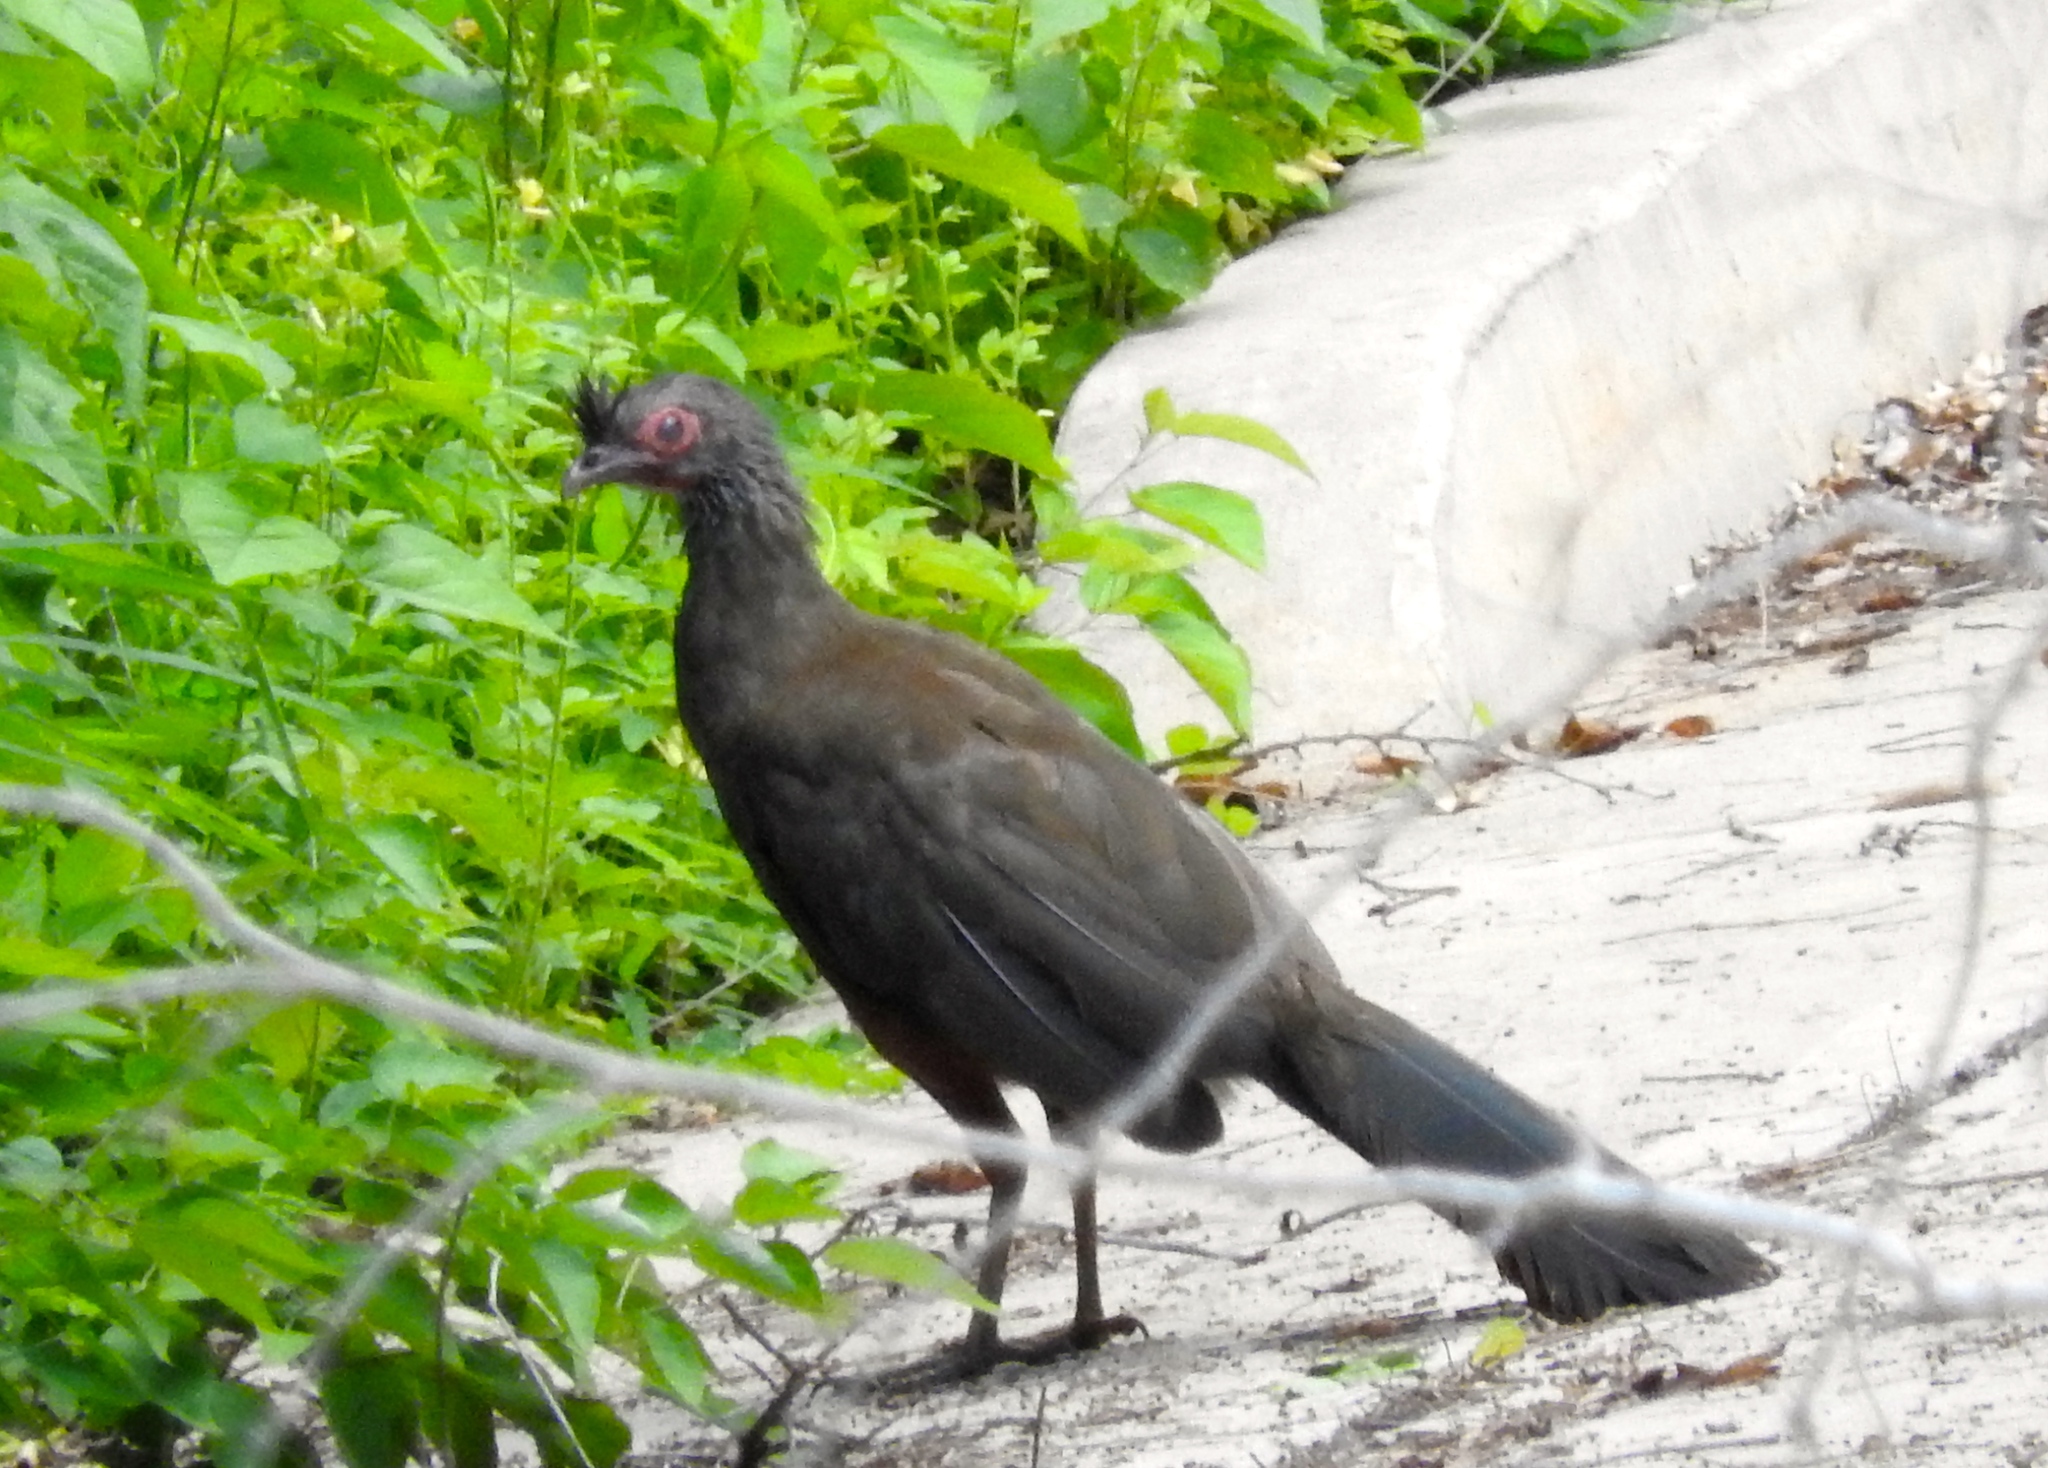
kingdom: Animalia
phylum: Chordata
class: Aves
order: Galliformes
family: Cracidae
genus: Ortalis
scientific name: Ortalis wagleri
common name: Rufous-bellied chachalaca
